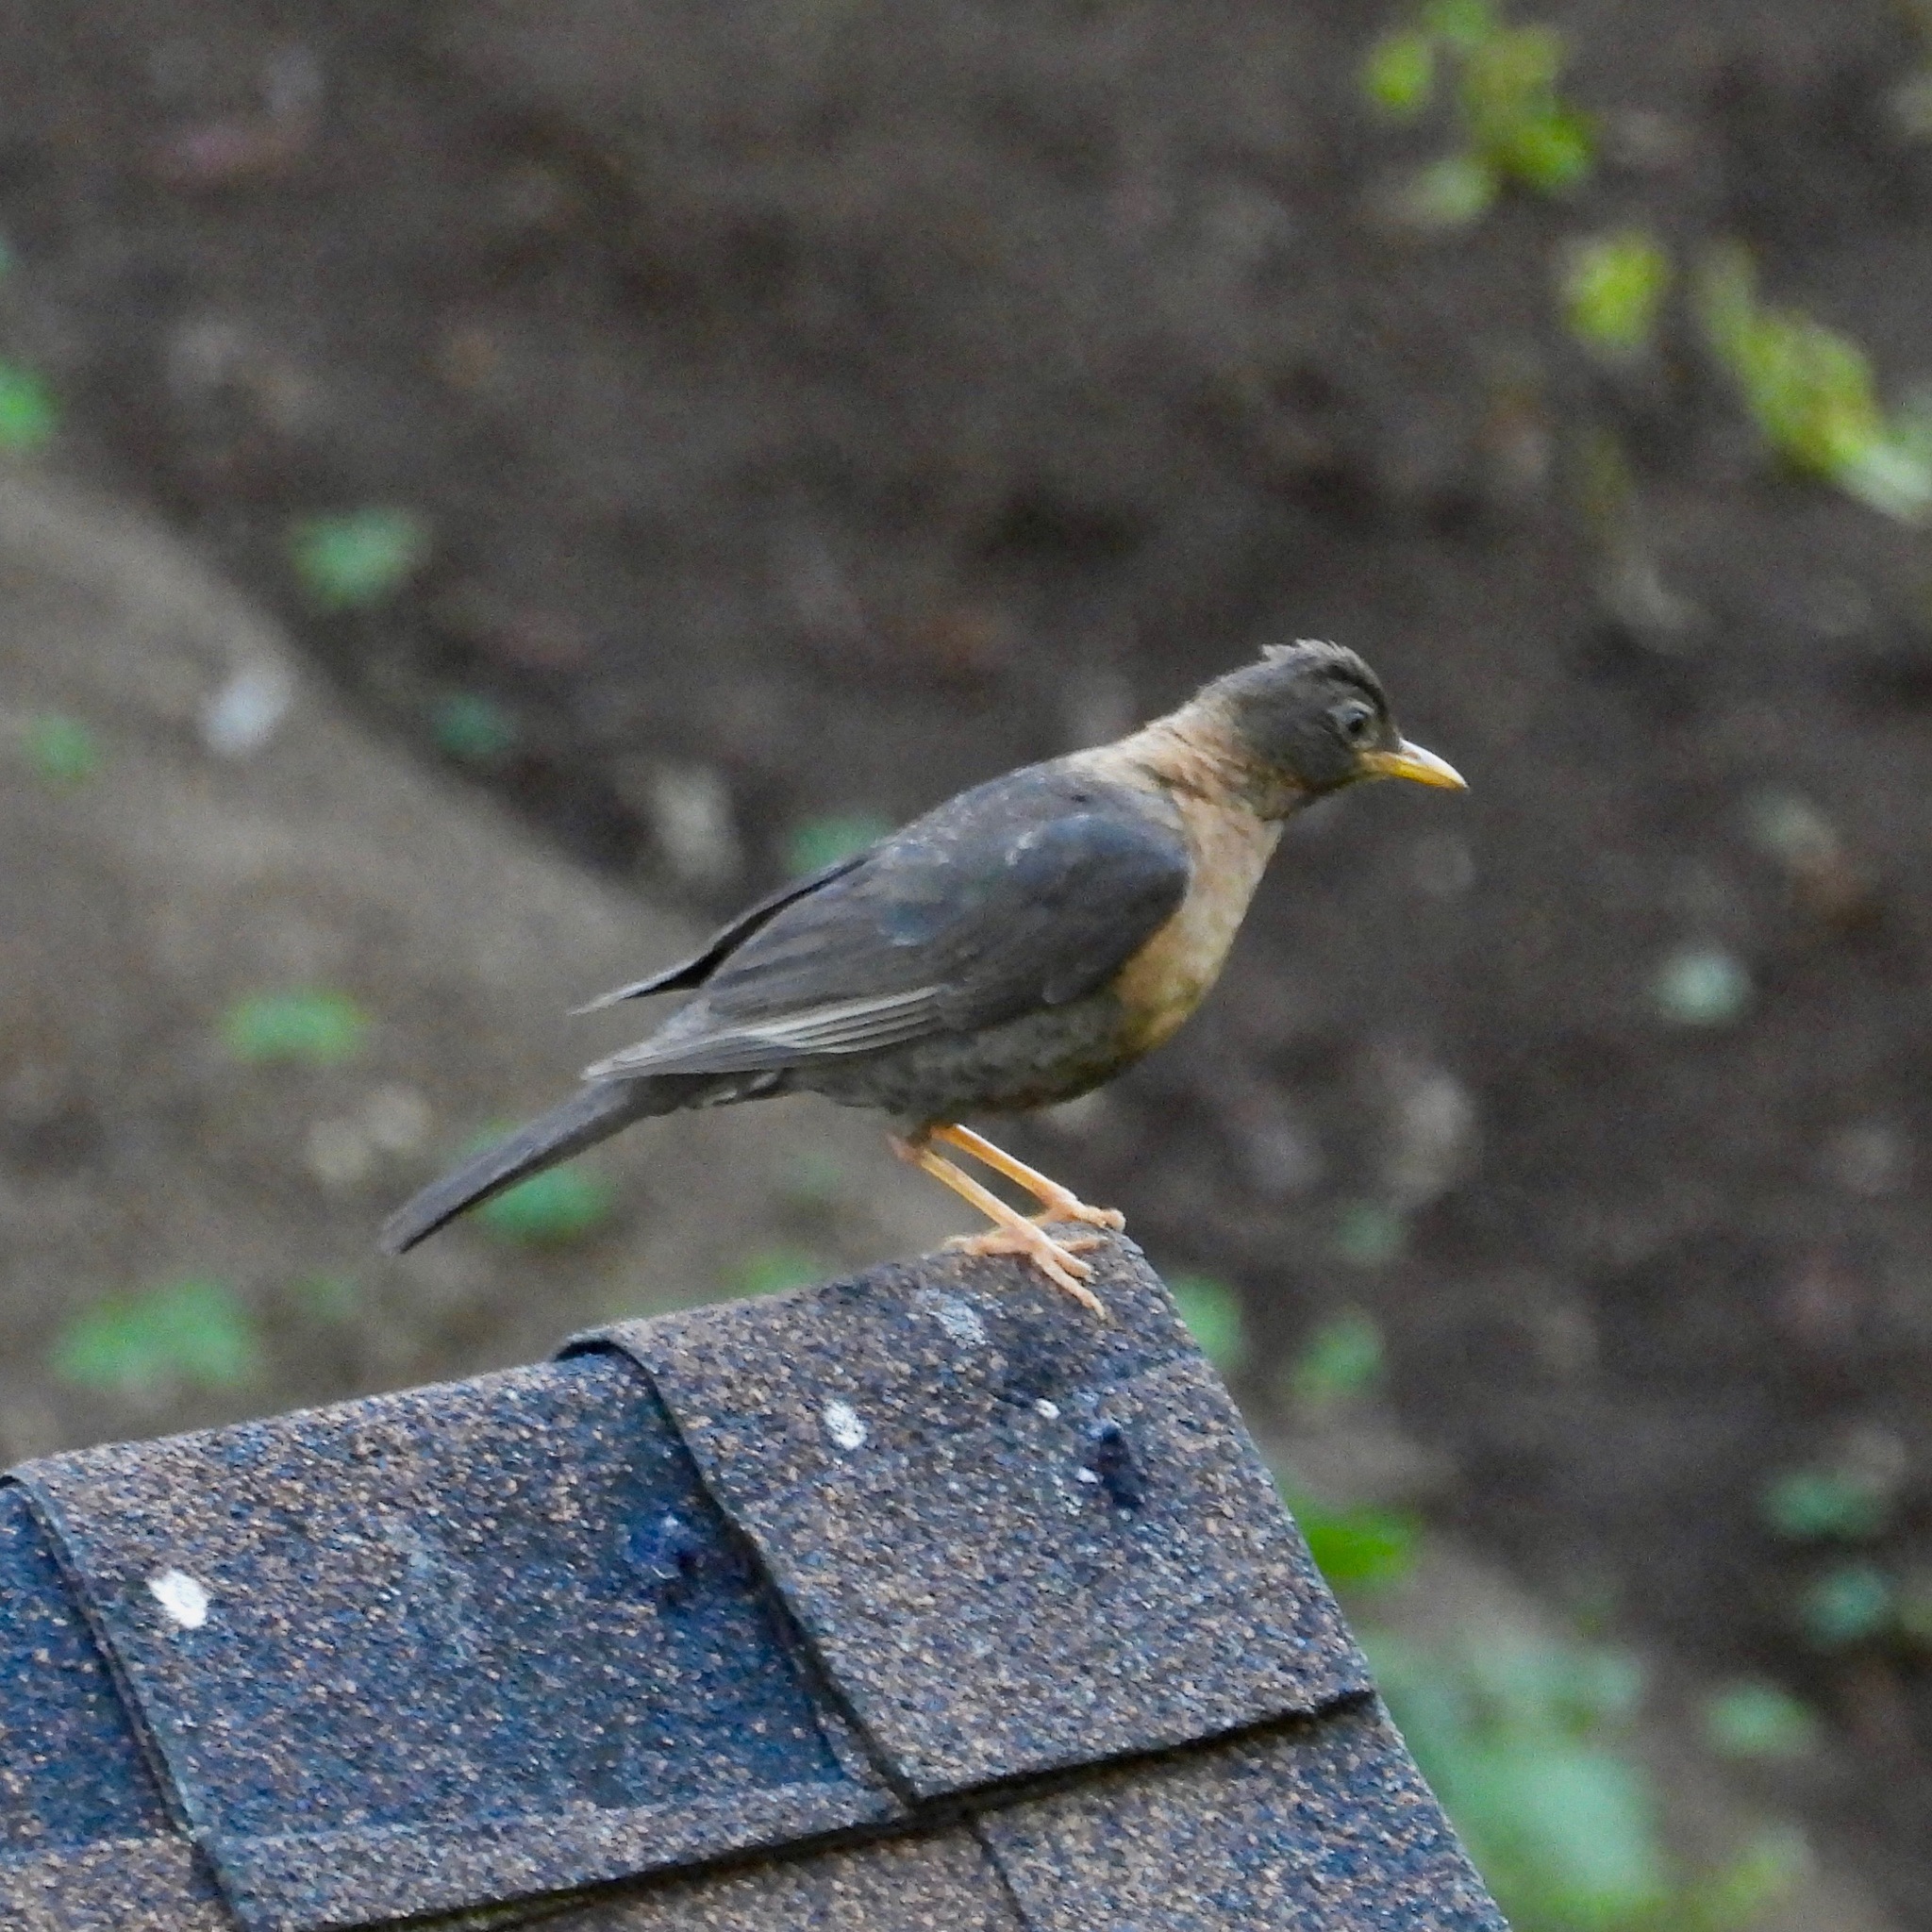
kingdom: Animalia
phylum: Chordata
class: Aves
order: Passeriformes
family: Turdidae
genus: Turdus
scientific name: Turdus rufitorques
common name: Rufous-collared thrush
